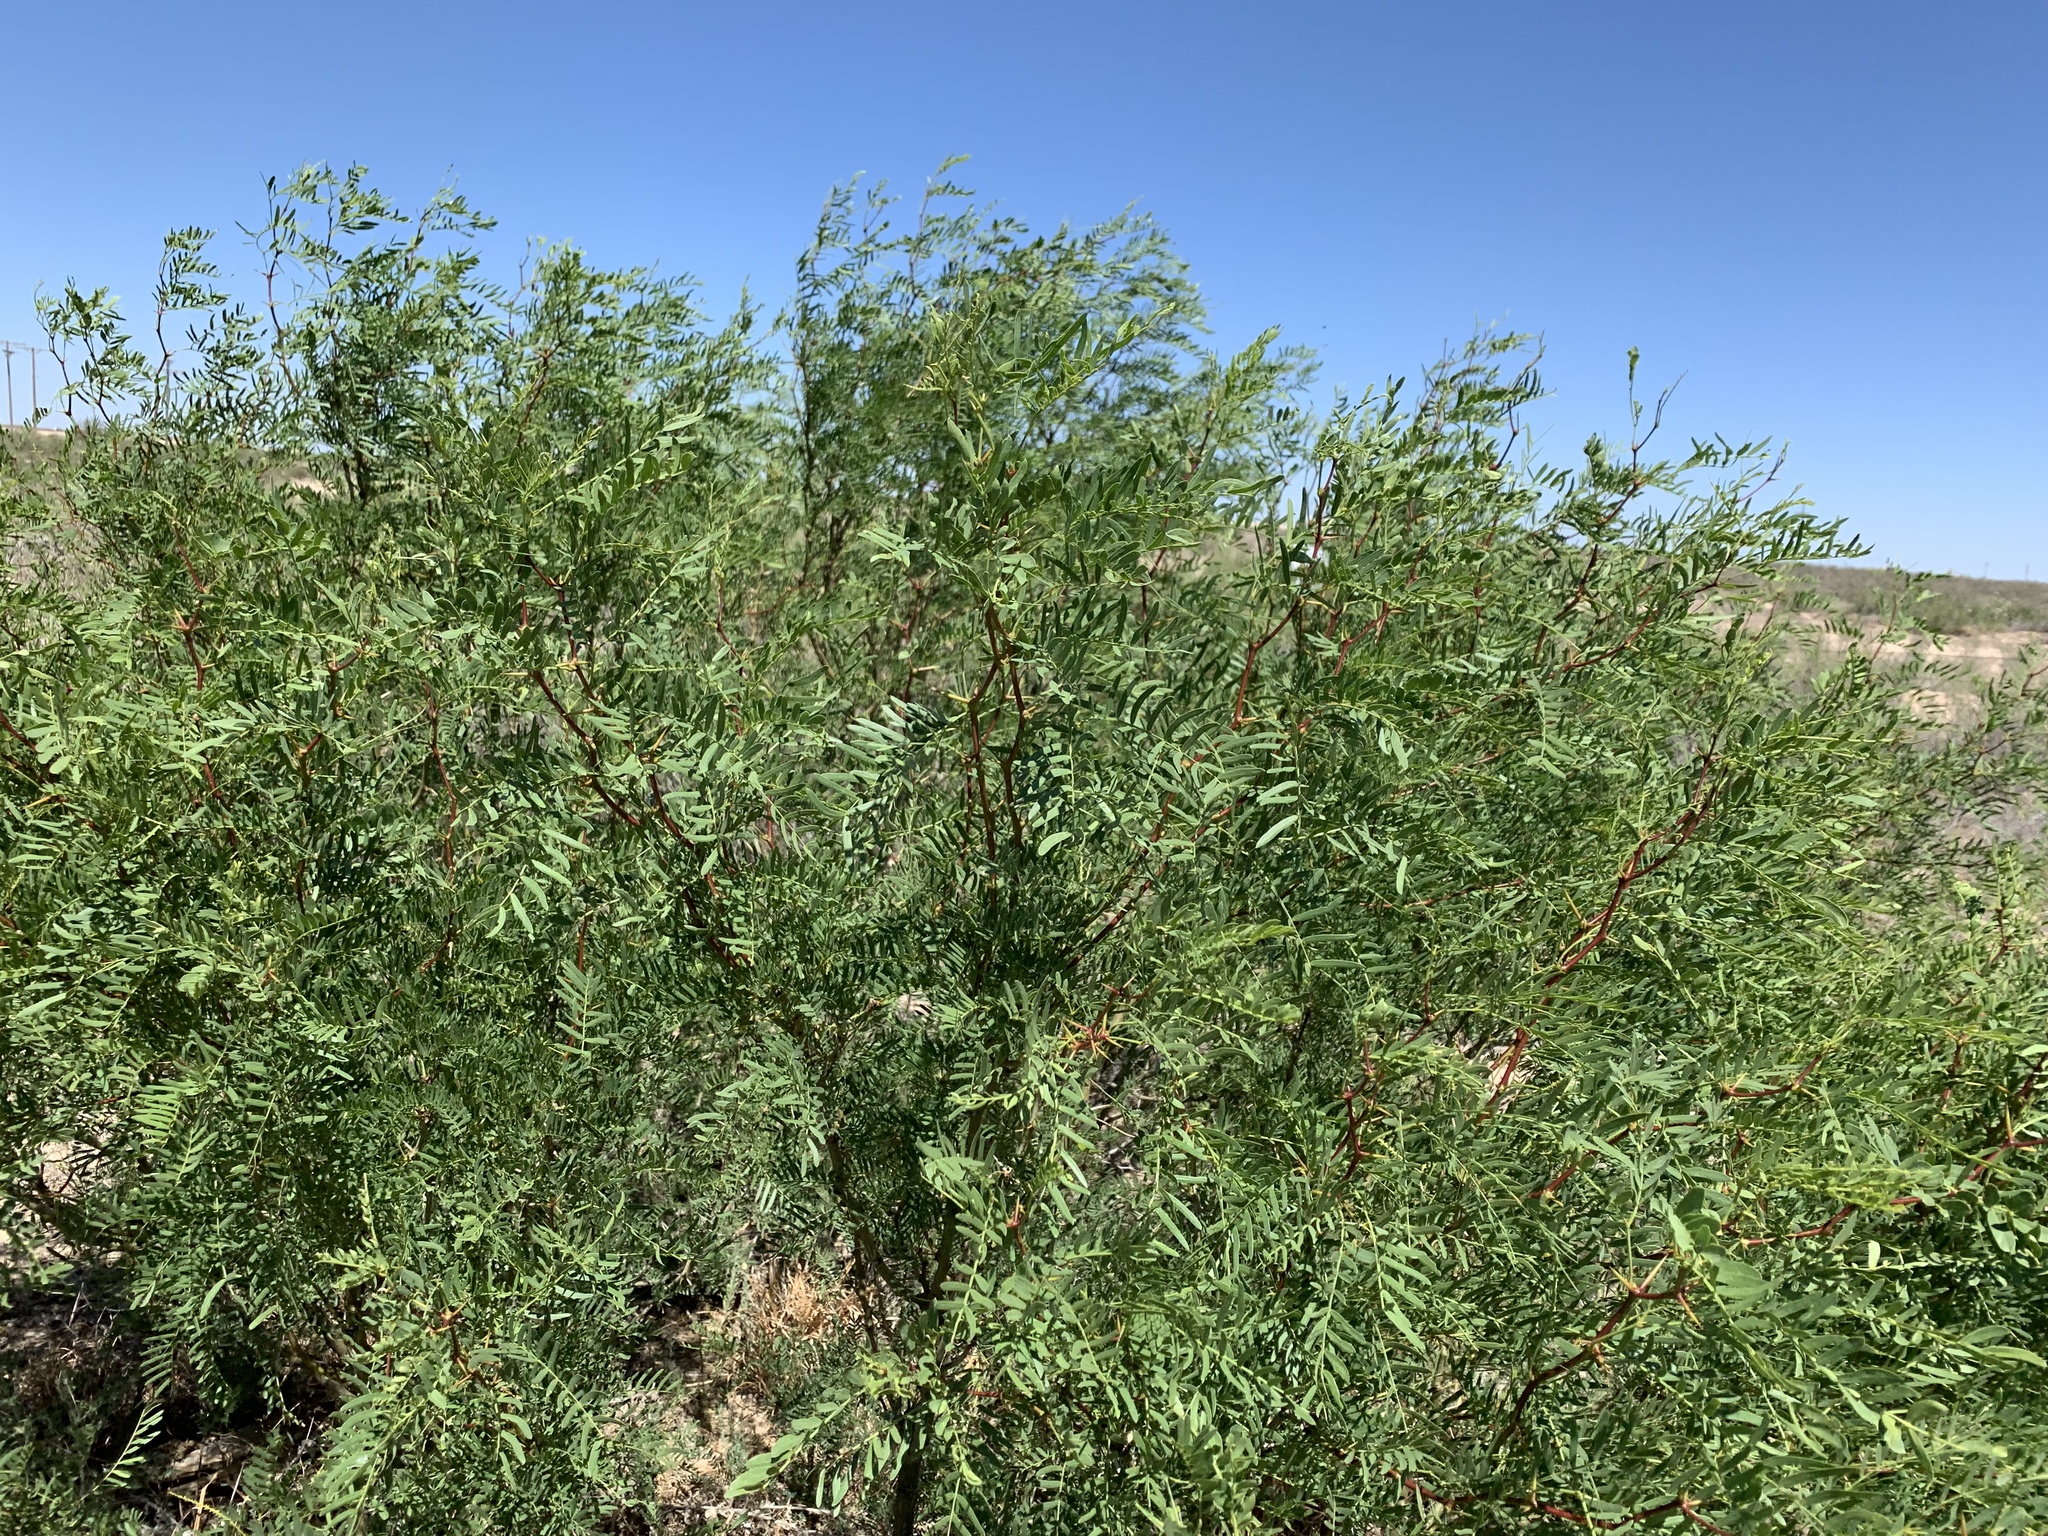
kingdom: Plantae
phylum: Tracheophyta
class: Magnoliopsida
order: Fabales
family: Fabaceae
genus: Prosopis
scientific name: Prosopis glandulosa
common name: Honey mesquite
